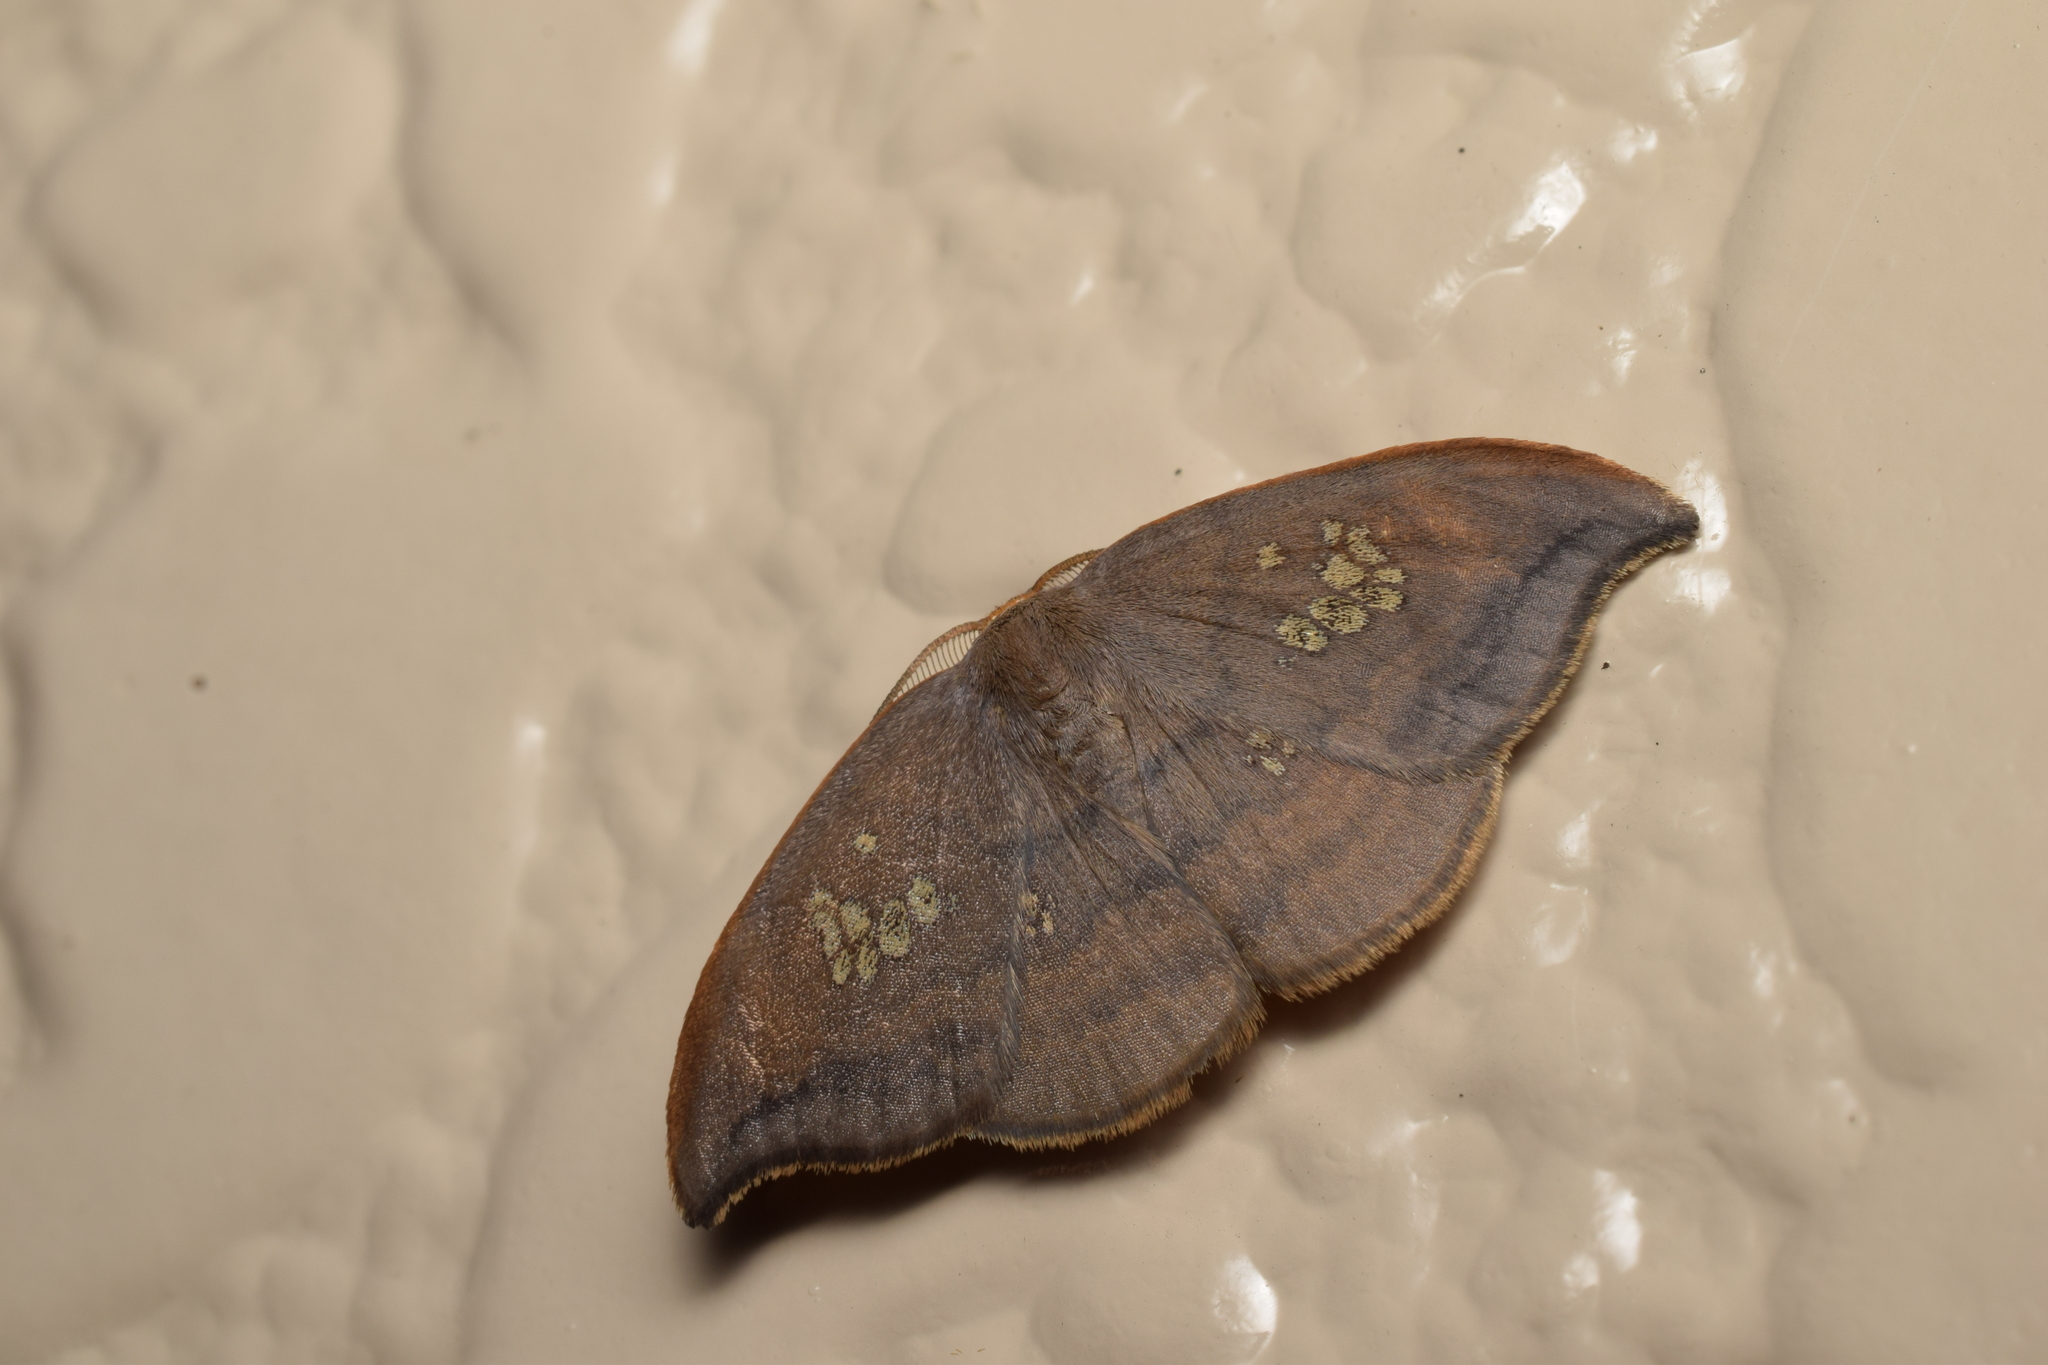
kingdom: Animalia
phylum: Arthropoda
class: Insecta
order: Lepidoptera
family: Drepanidae
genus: Agnidra
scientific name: Agnidra scabiosa
